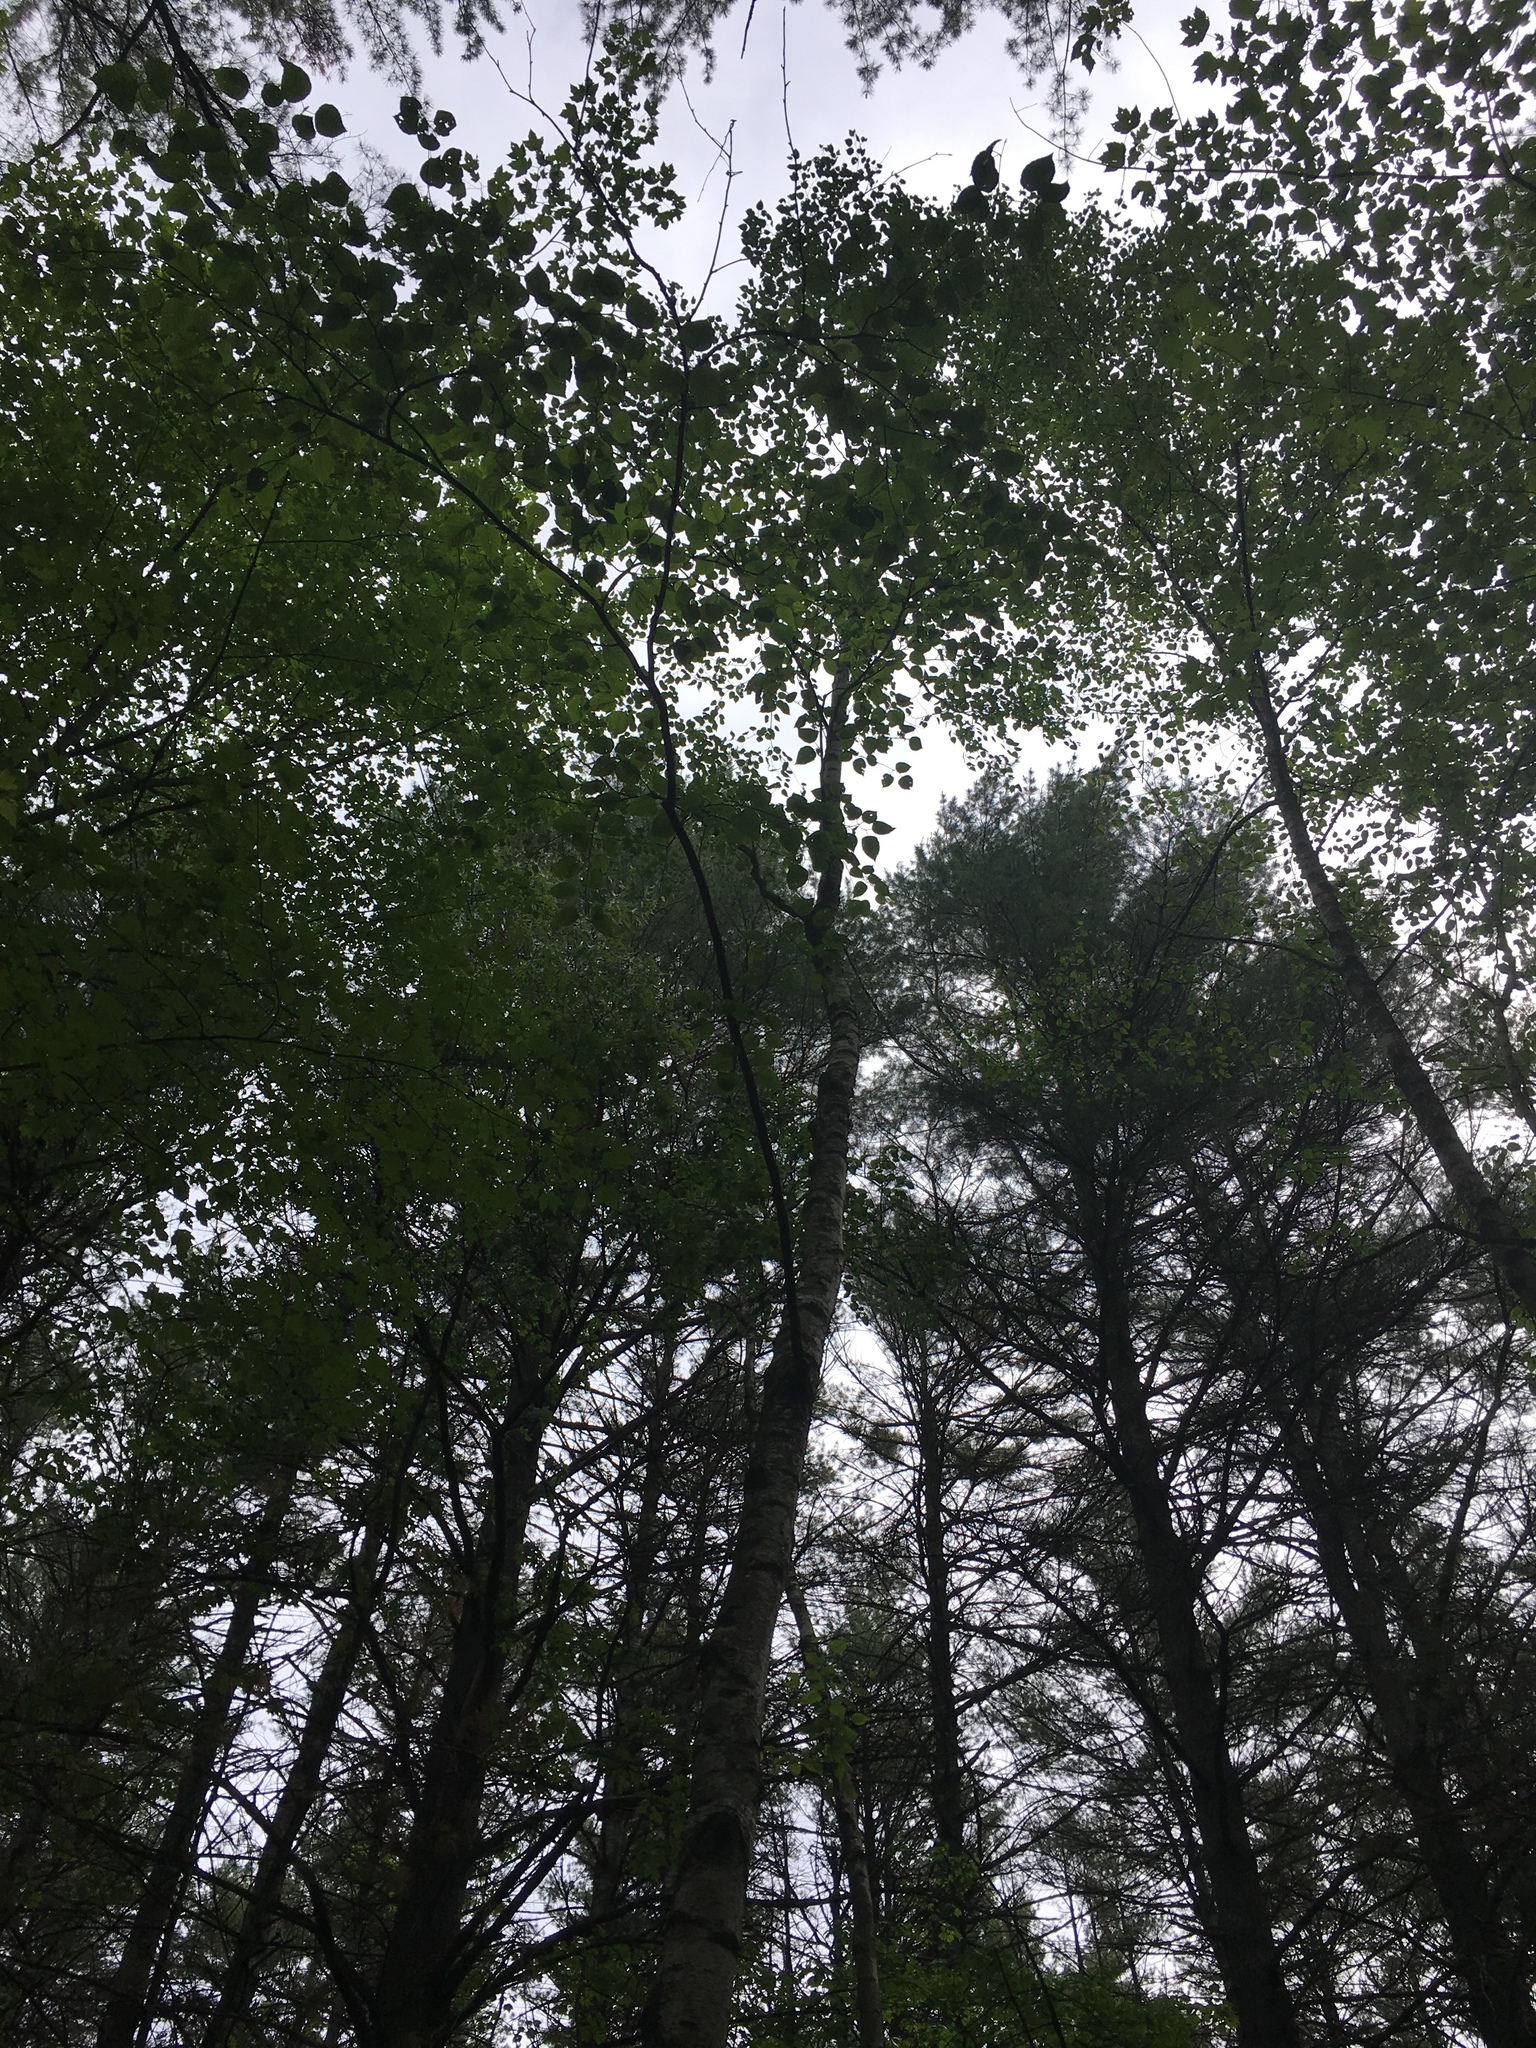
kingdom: Plantae
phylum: Tracheophyta
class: Magnoliopsida
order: Fagales
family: Betulaceae
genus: Betula
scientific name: Betula papyrifera
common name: Paper birch
